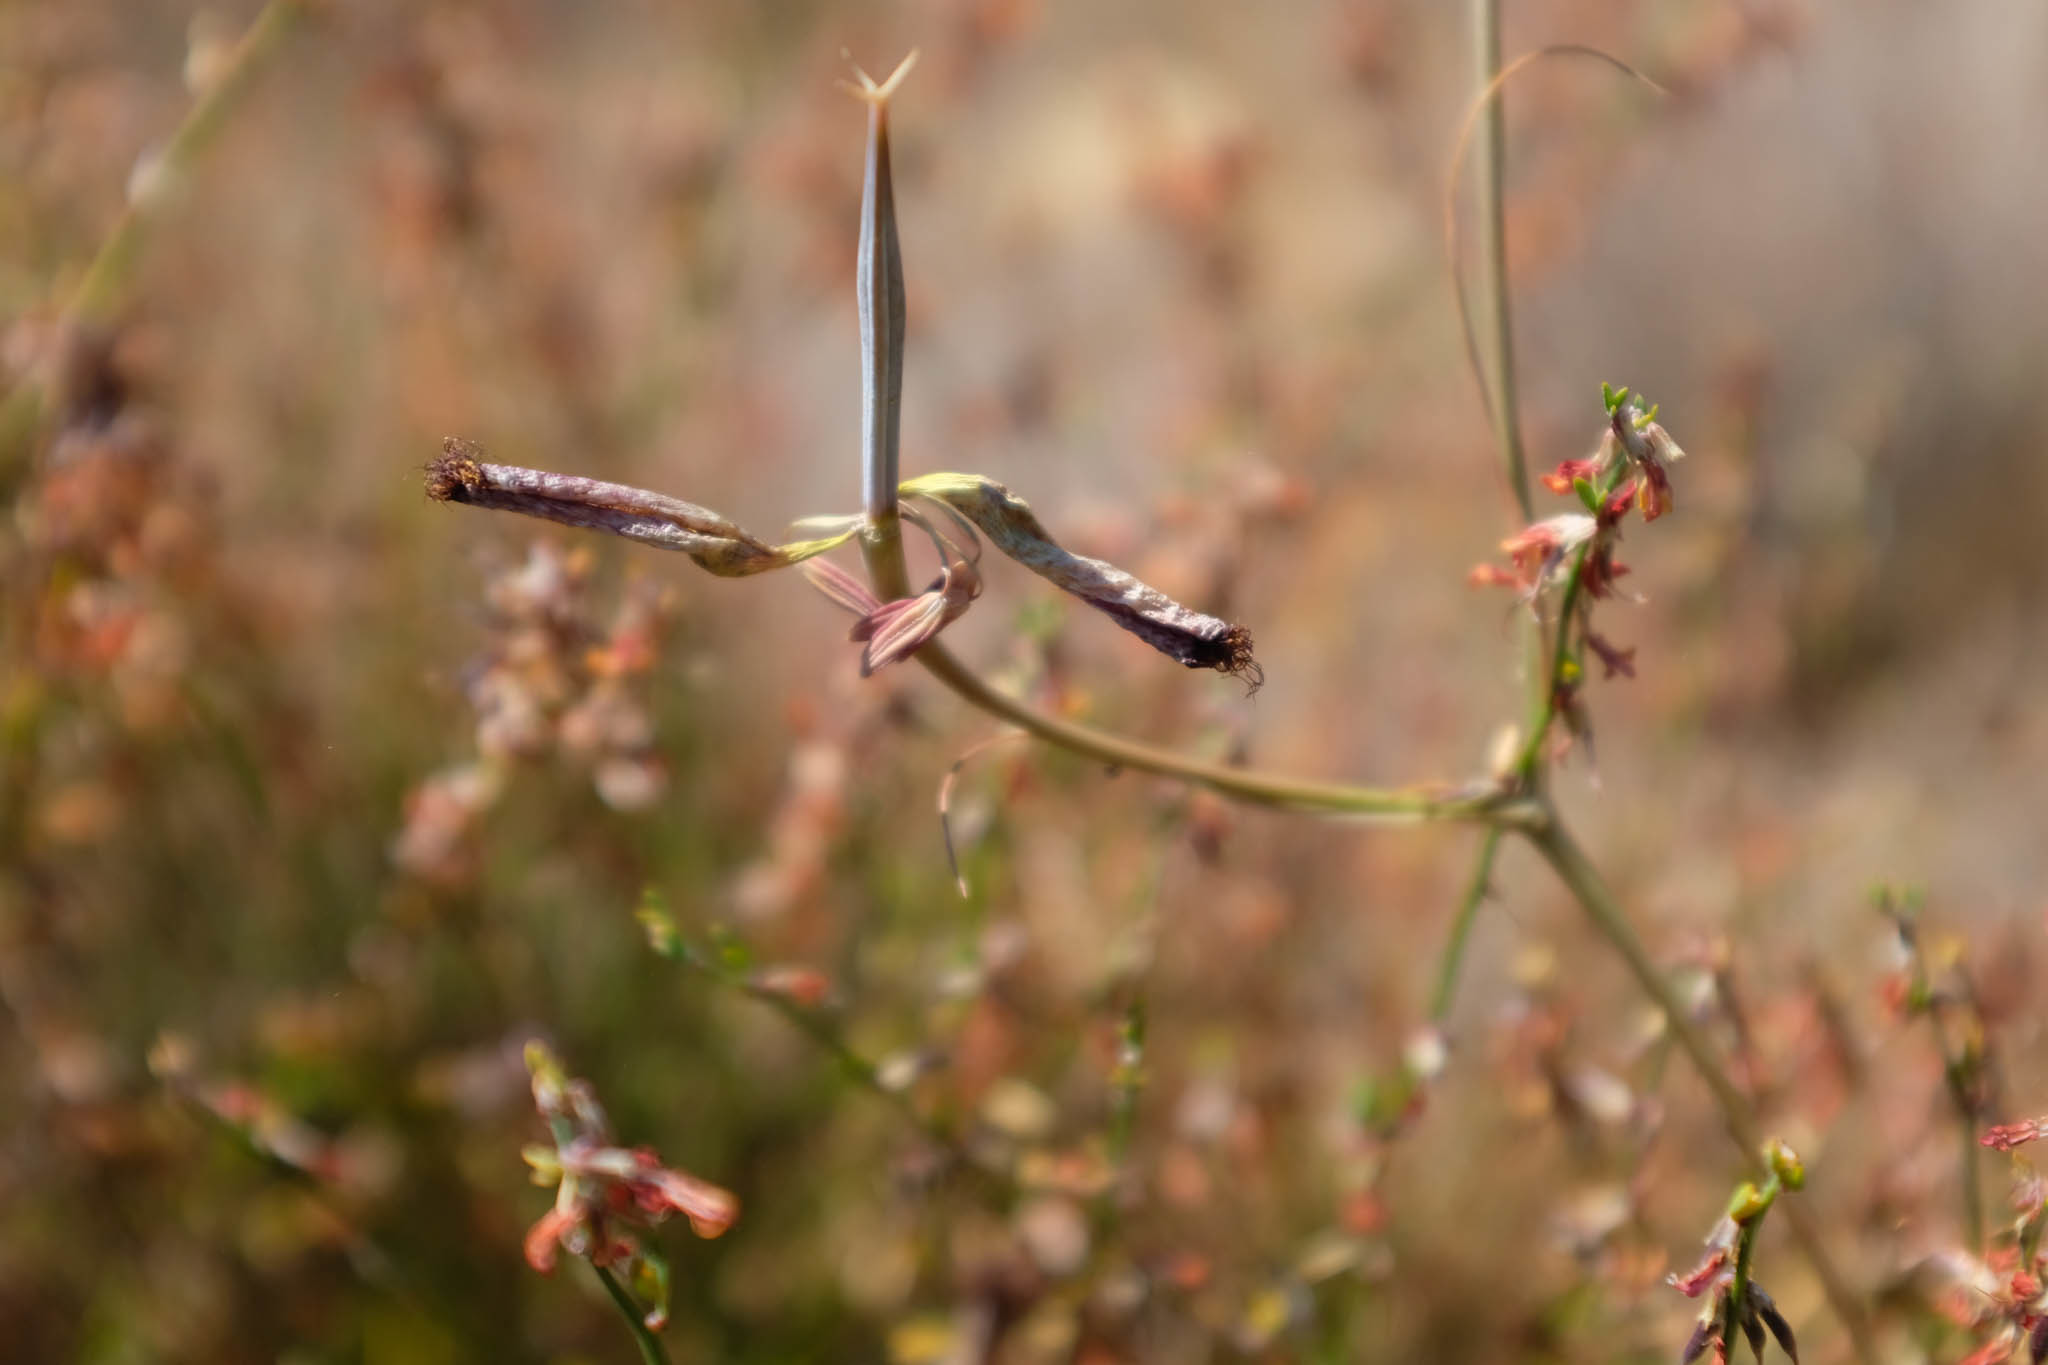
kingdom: Plantae
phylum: Tracheophyta
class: Liliopsida
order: Liliales
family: Liliaceae
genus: Calochortus
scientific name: Calochortus fimbriatus
